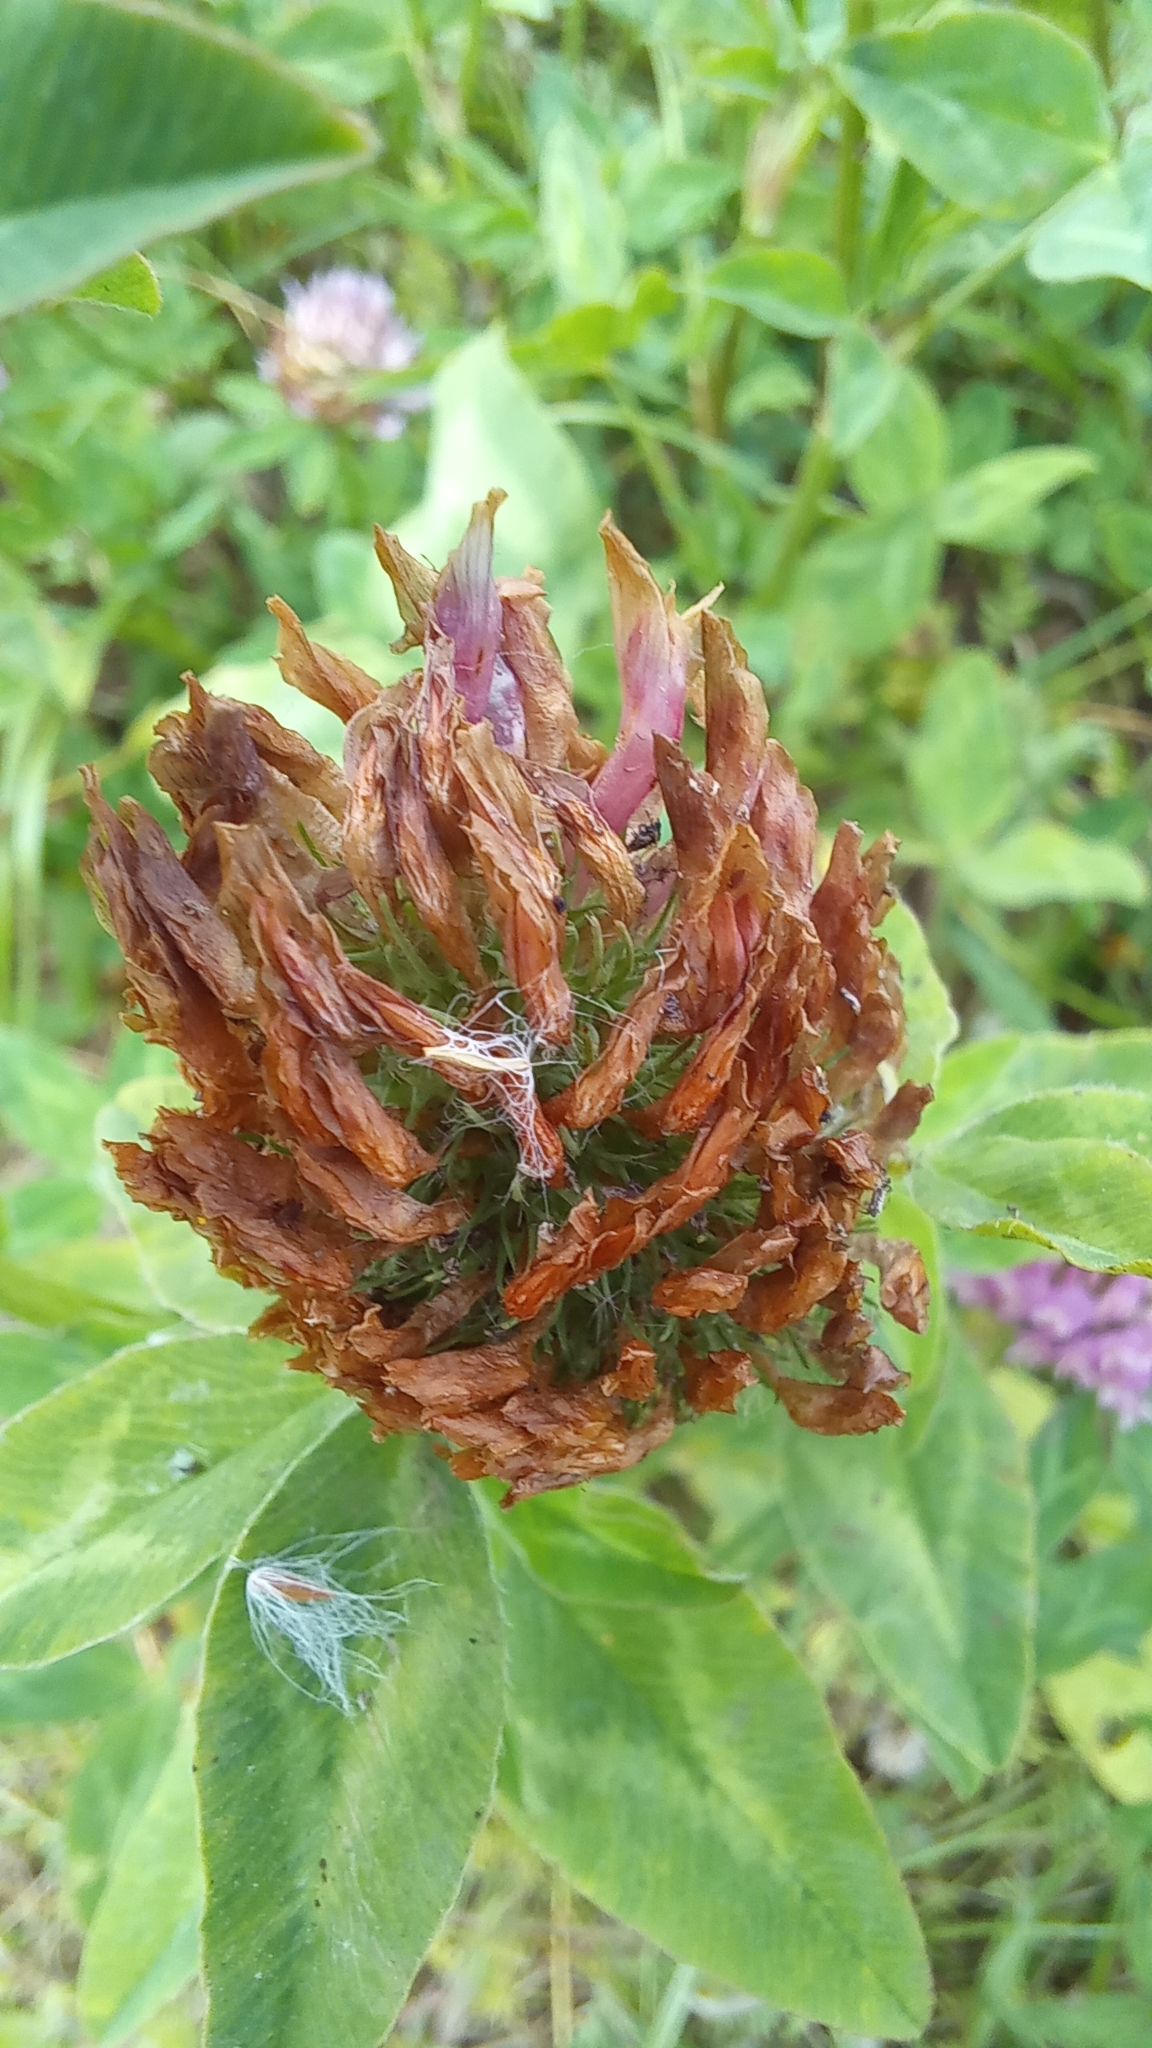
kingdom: Plantae
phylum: Tracheophyta
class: Magnoliopsida
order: Fabales
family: Fabaceae
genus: Trifolium
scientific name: Trifolium pratense
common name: Red clover
